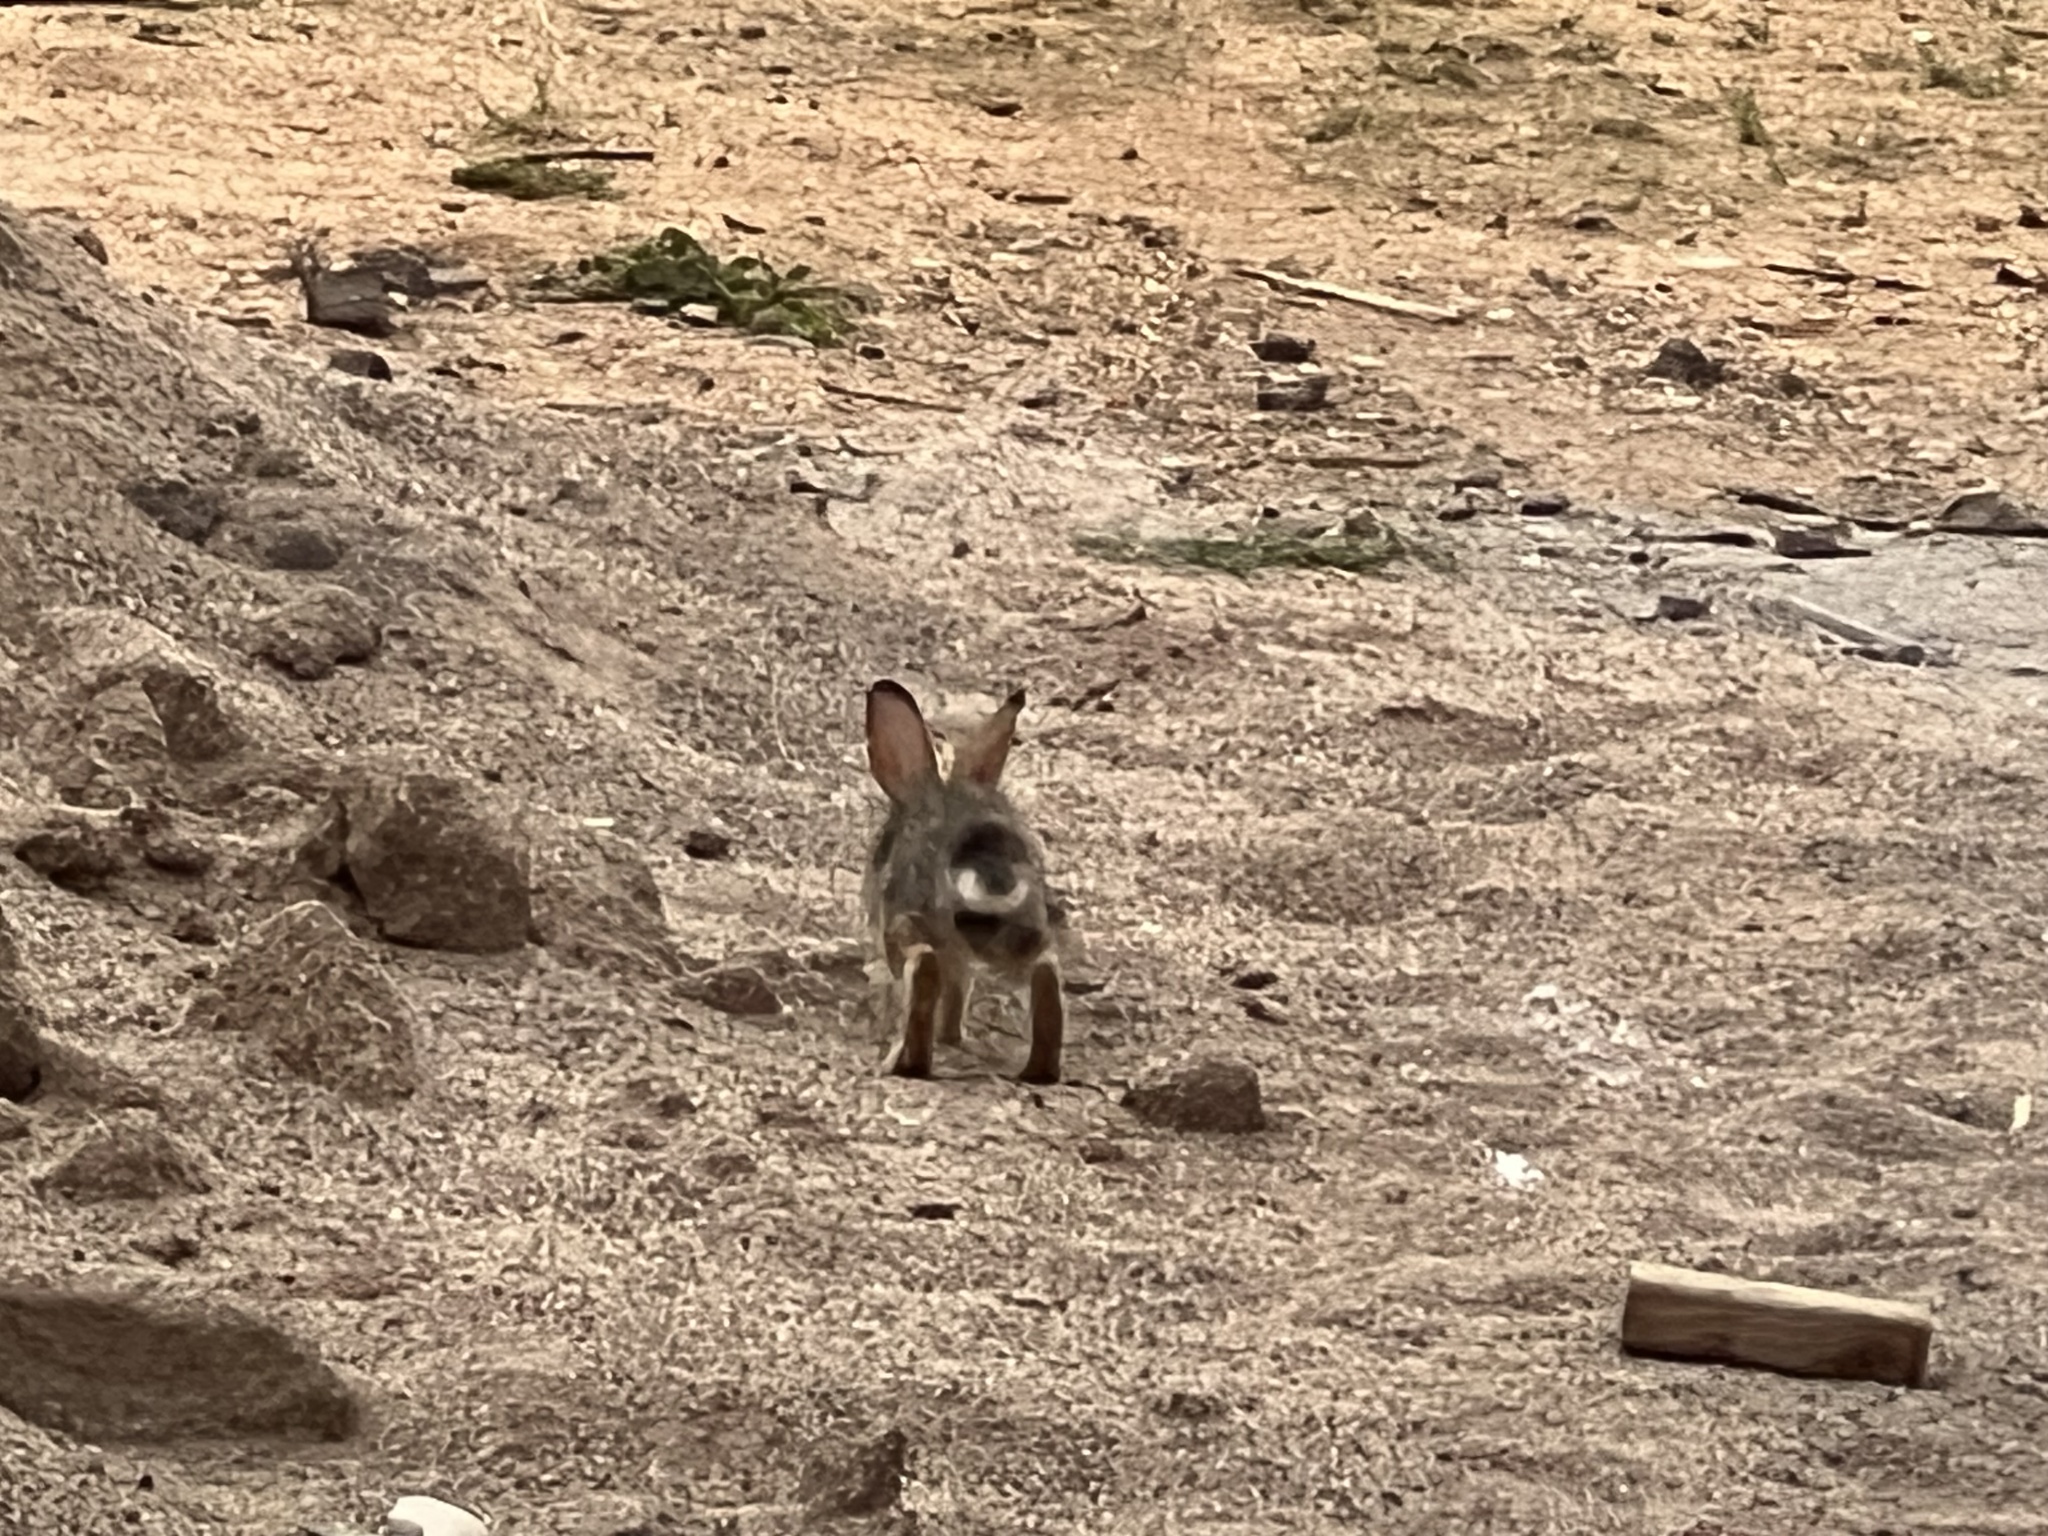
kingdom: Animalia
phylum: Chordata
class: Mammalia
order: Lagomorpha
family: Leporidae
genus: Sylvilagus
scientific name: Sylvilagus audubonii
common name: Desert cottontail
